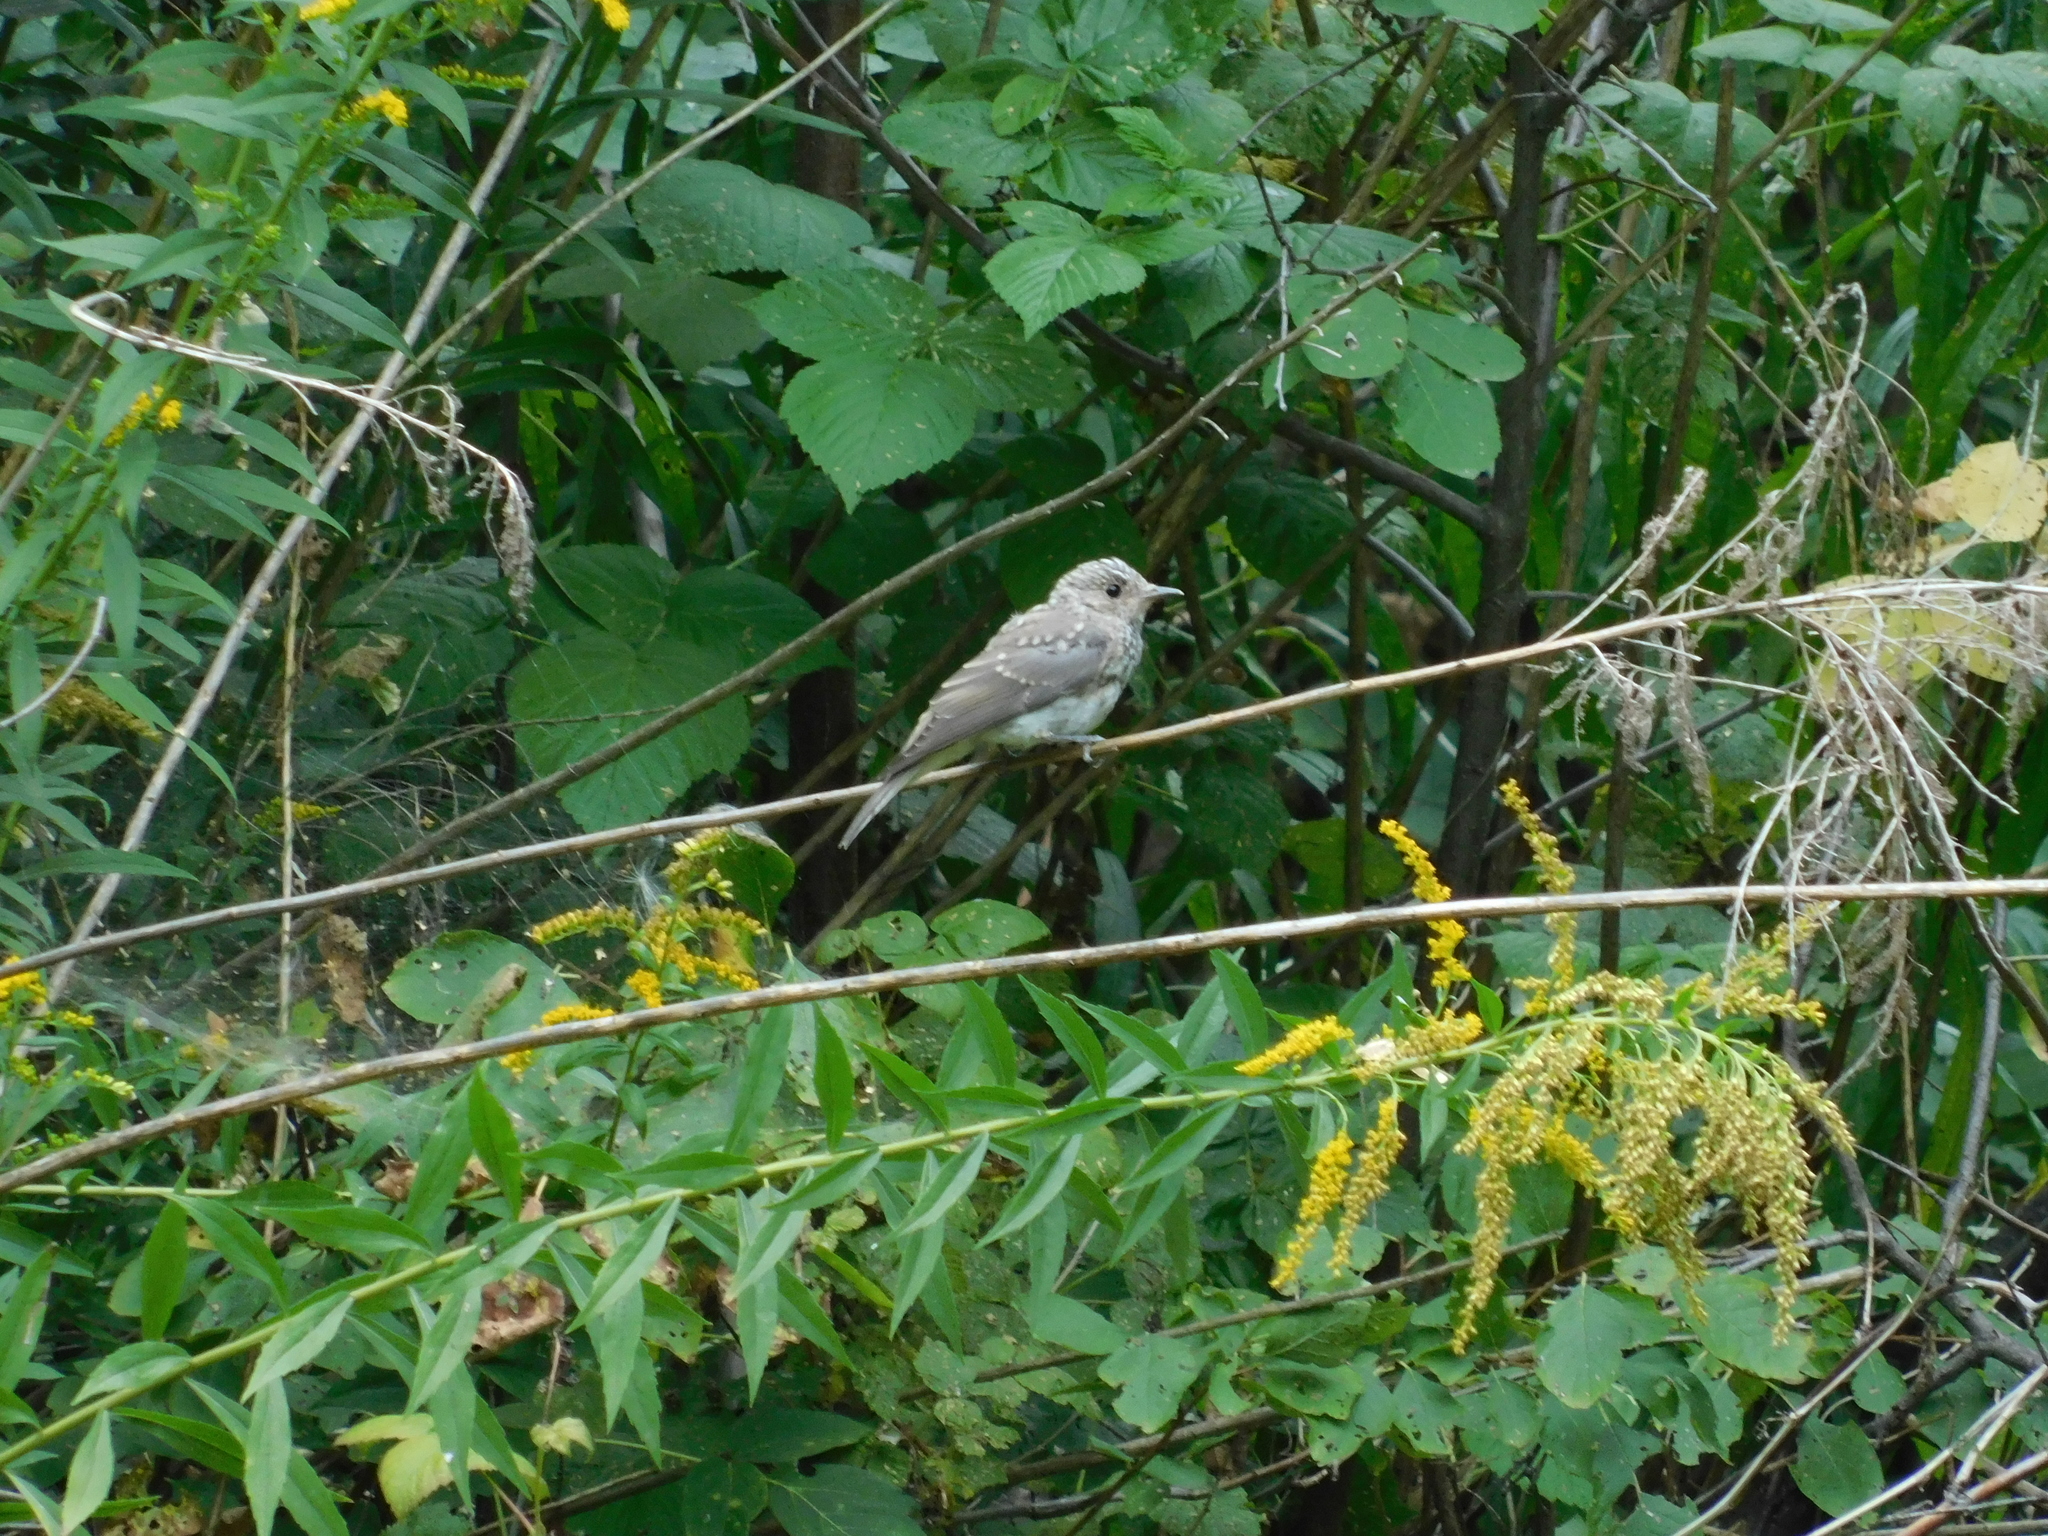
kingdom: Animalia
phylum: Chordata
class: Aves
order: Passeriformes
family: Muscicapidae
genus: Muscicapa
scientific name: Muscicapa striata
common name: Spotted flycatcher
